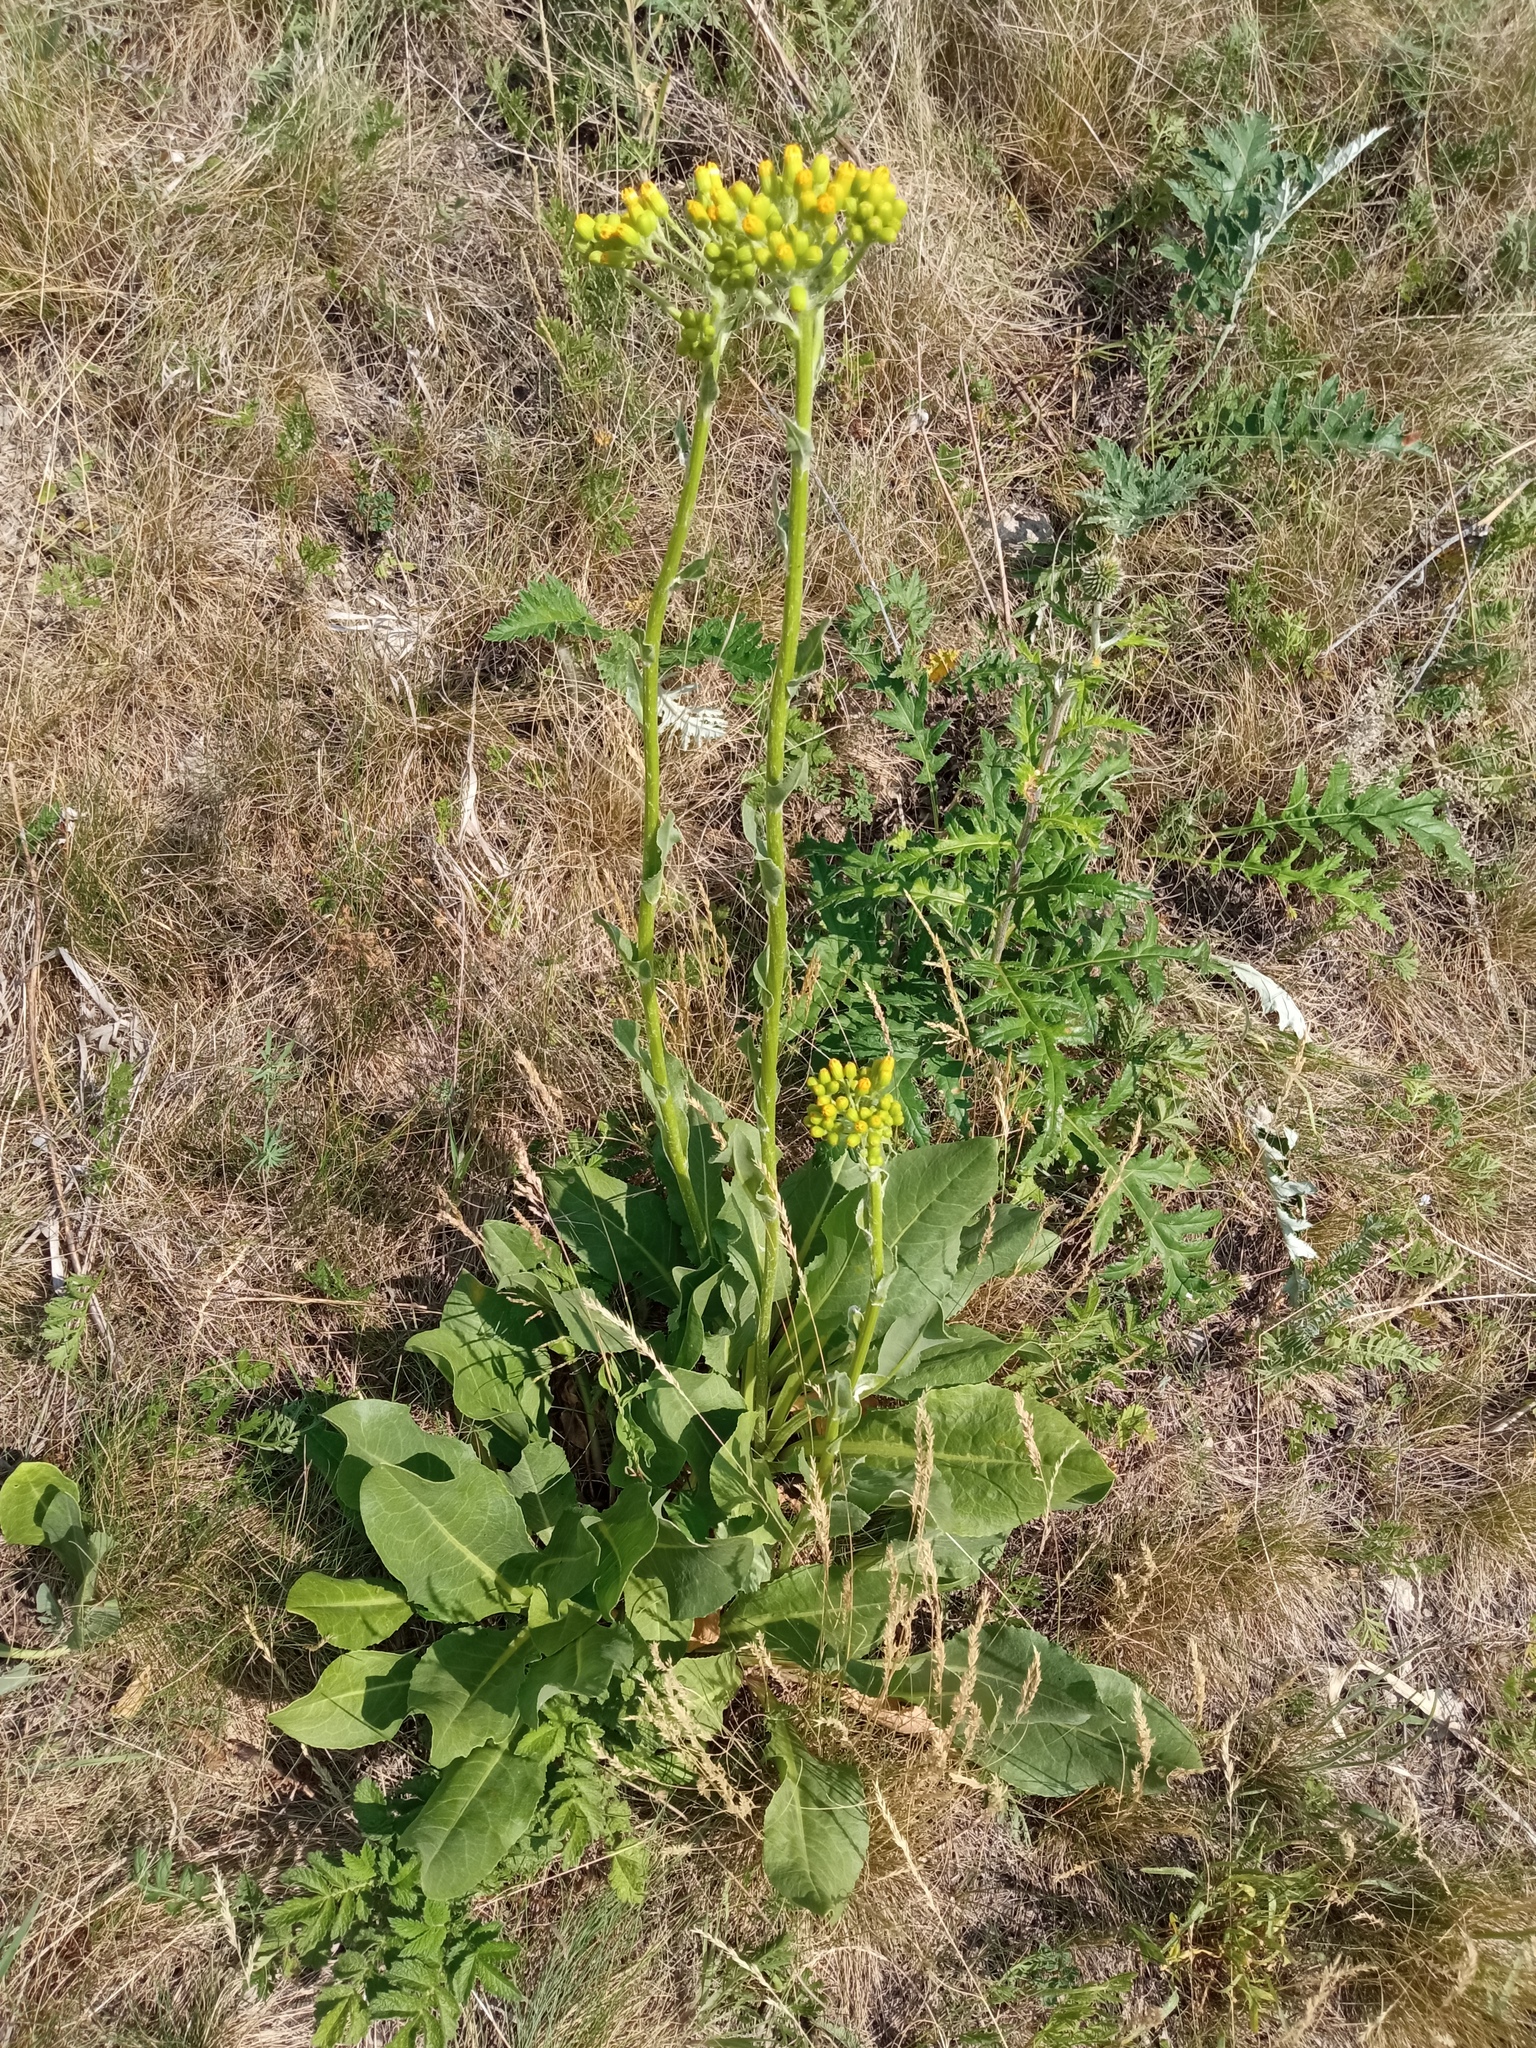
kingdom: Plantae
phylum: Tracheophyta
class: Magnoliopsida
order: Asterales
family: Asteraceae
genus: Senecio
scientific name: Senecio doria
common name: Golden ragwort
